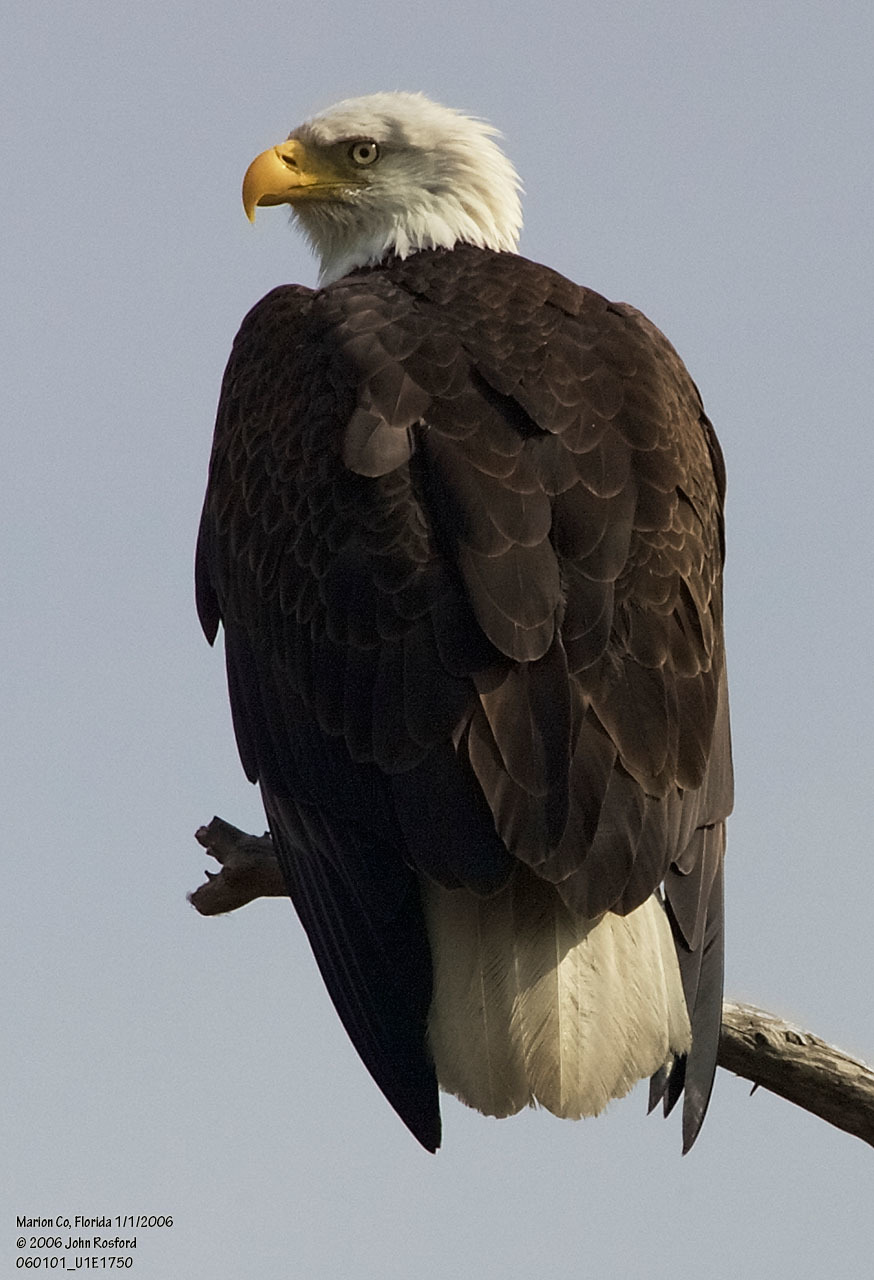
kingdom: Animalia
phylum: Chordata
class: Aves
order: Accipitriformes
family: Accipitridae
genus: Haliaeetus
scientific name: Haliaeetus leucocephalus
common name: Bald eagle
